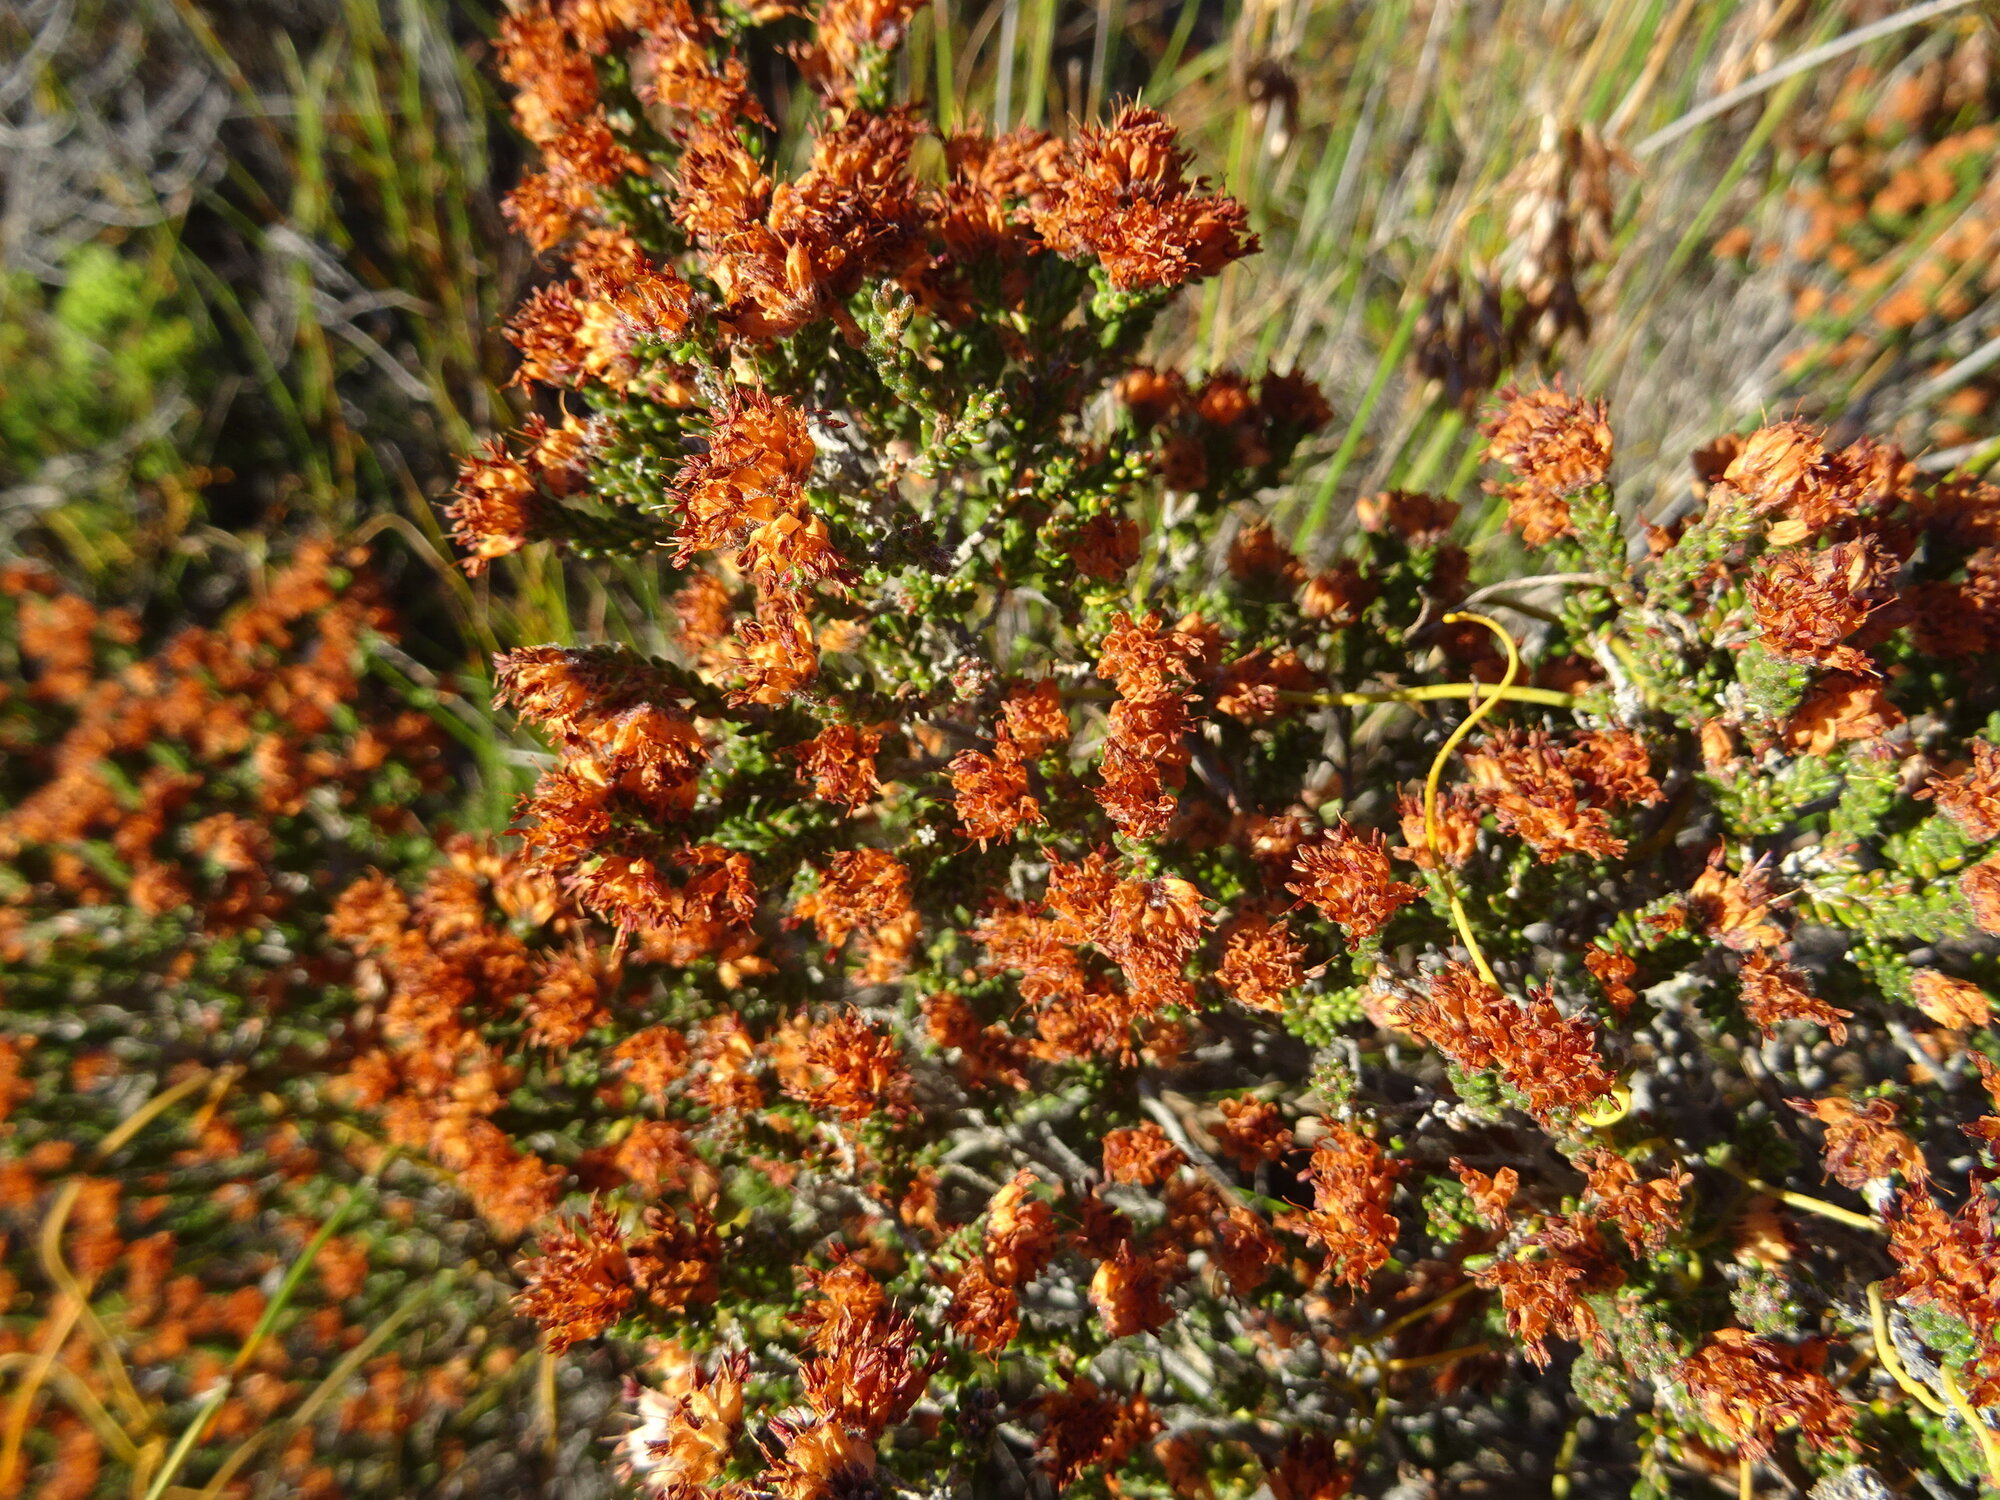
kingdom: Plantae
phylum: Tracheophyta
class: Magnoliopsida
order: Ericales
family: Ericaceae
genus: Erica
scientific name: Erica ericoides
